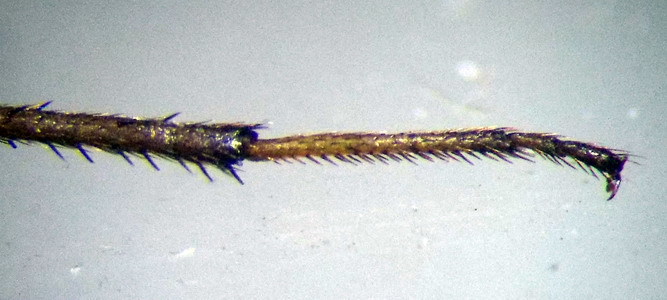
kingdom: Animalia
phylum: Arthropoda
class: Insecta
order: Hemiptera
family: Rhyparochromidae
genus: Emblethis
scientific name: Emblethis ciliatus
